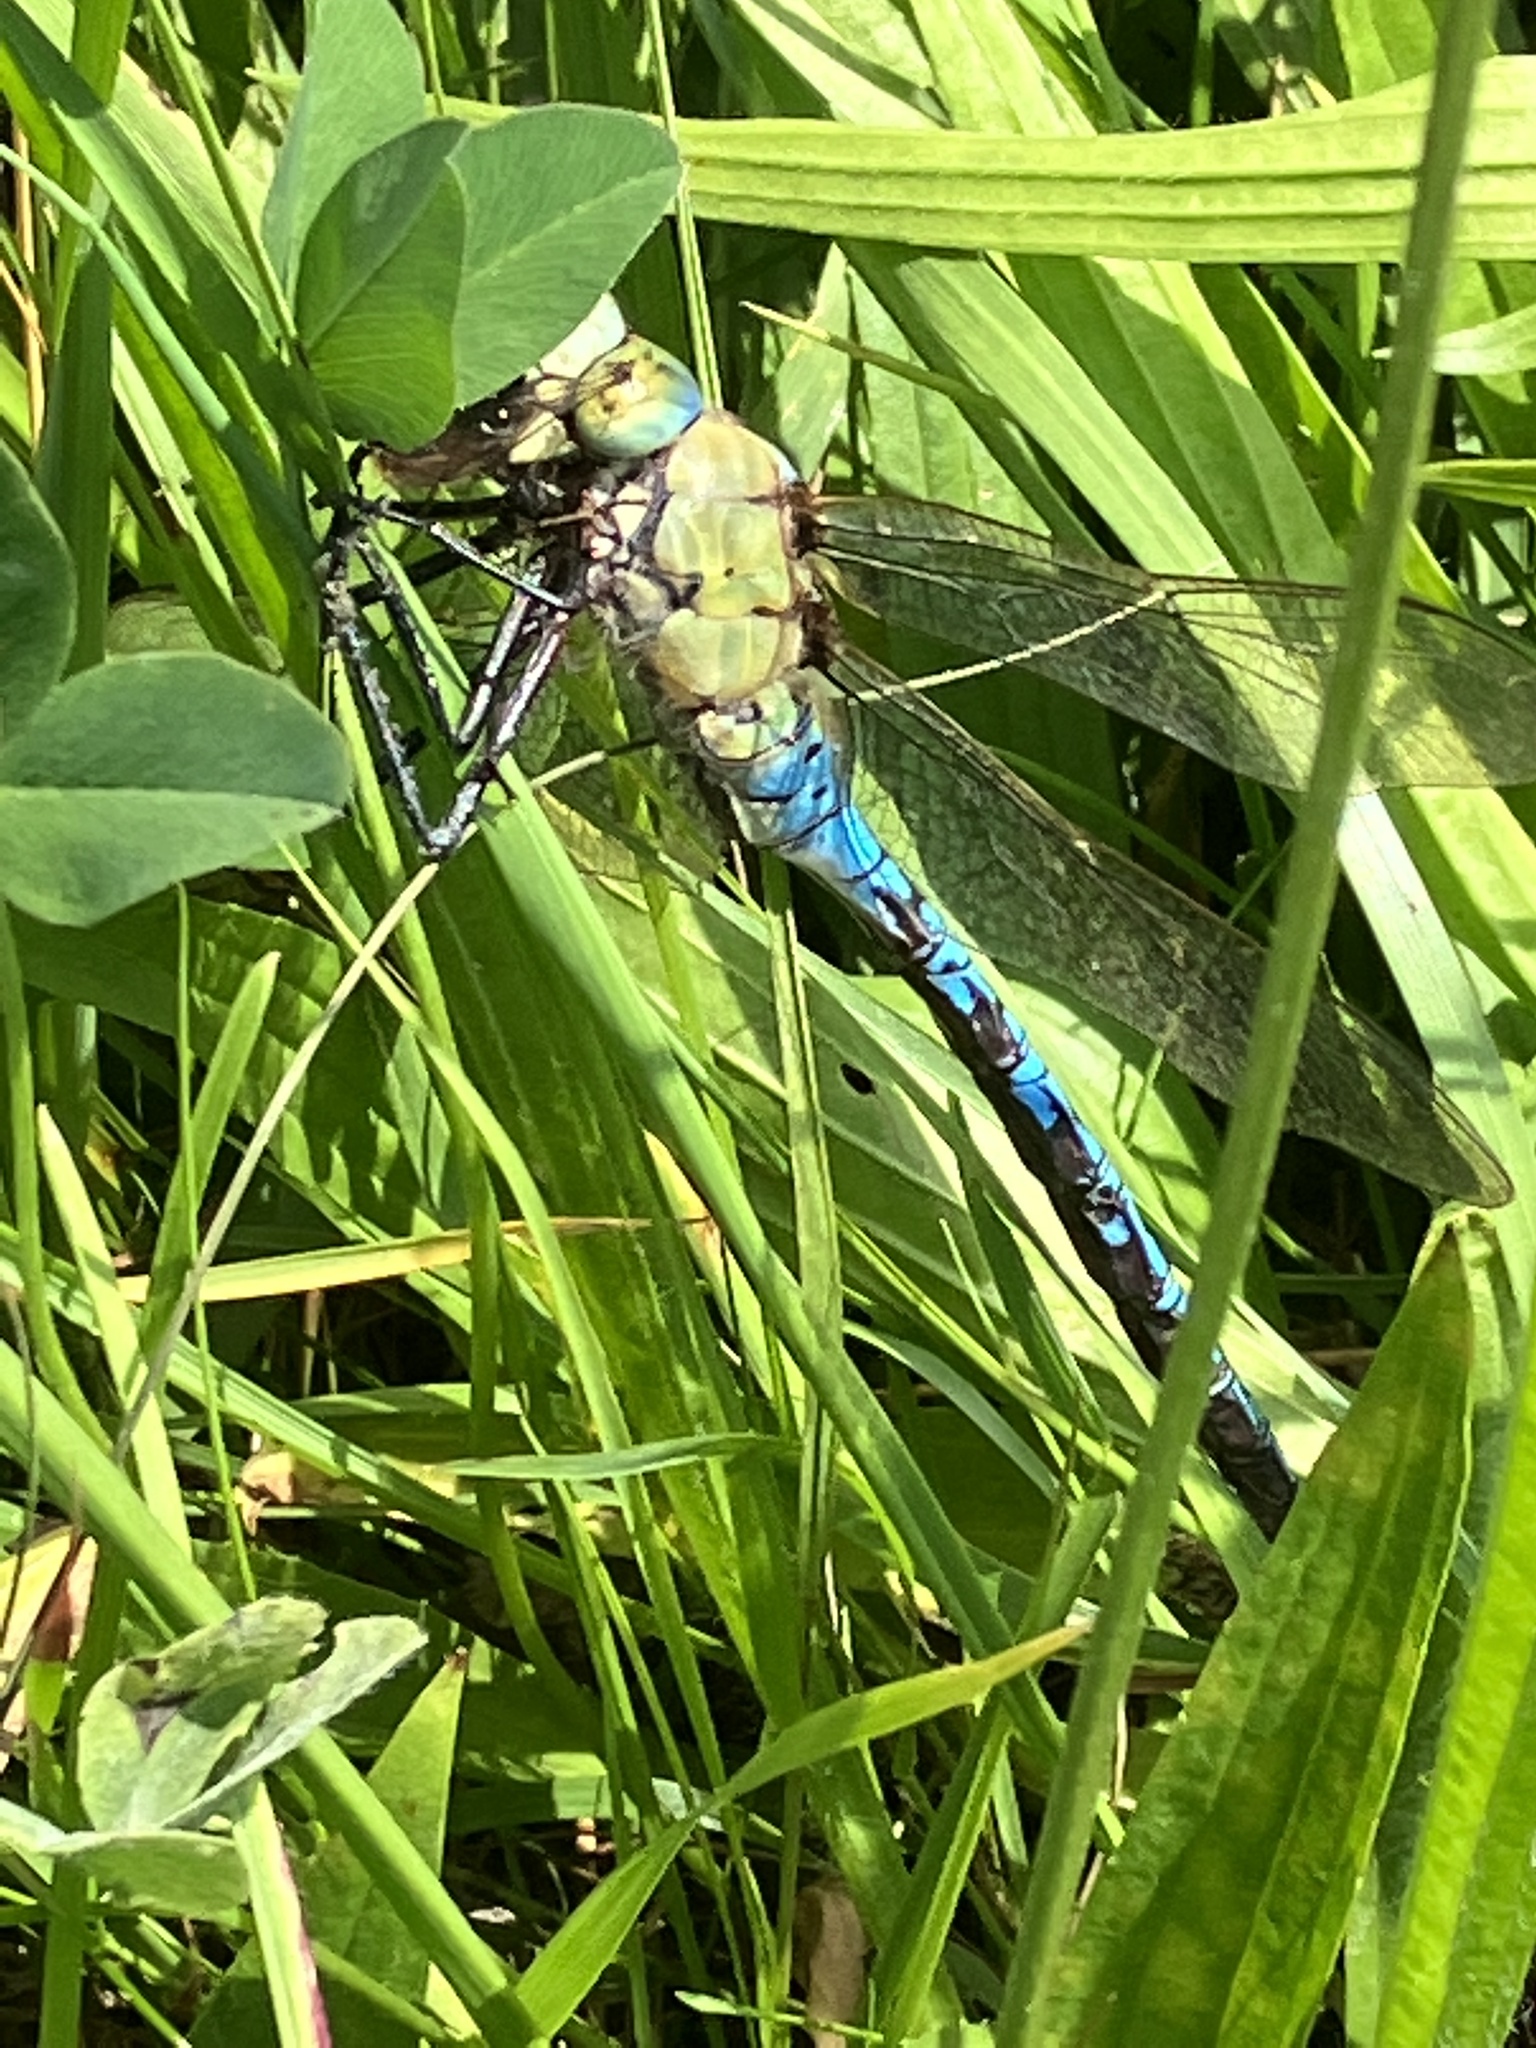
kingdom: Animalia
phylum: Arthropoda
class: Insecta
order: Odonata
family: Aeshnidae
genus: Anax
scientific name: Anax imperator
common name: Emperor dragonfly
